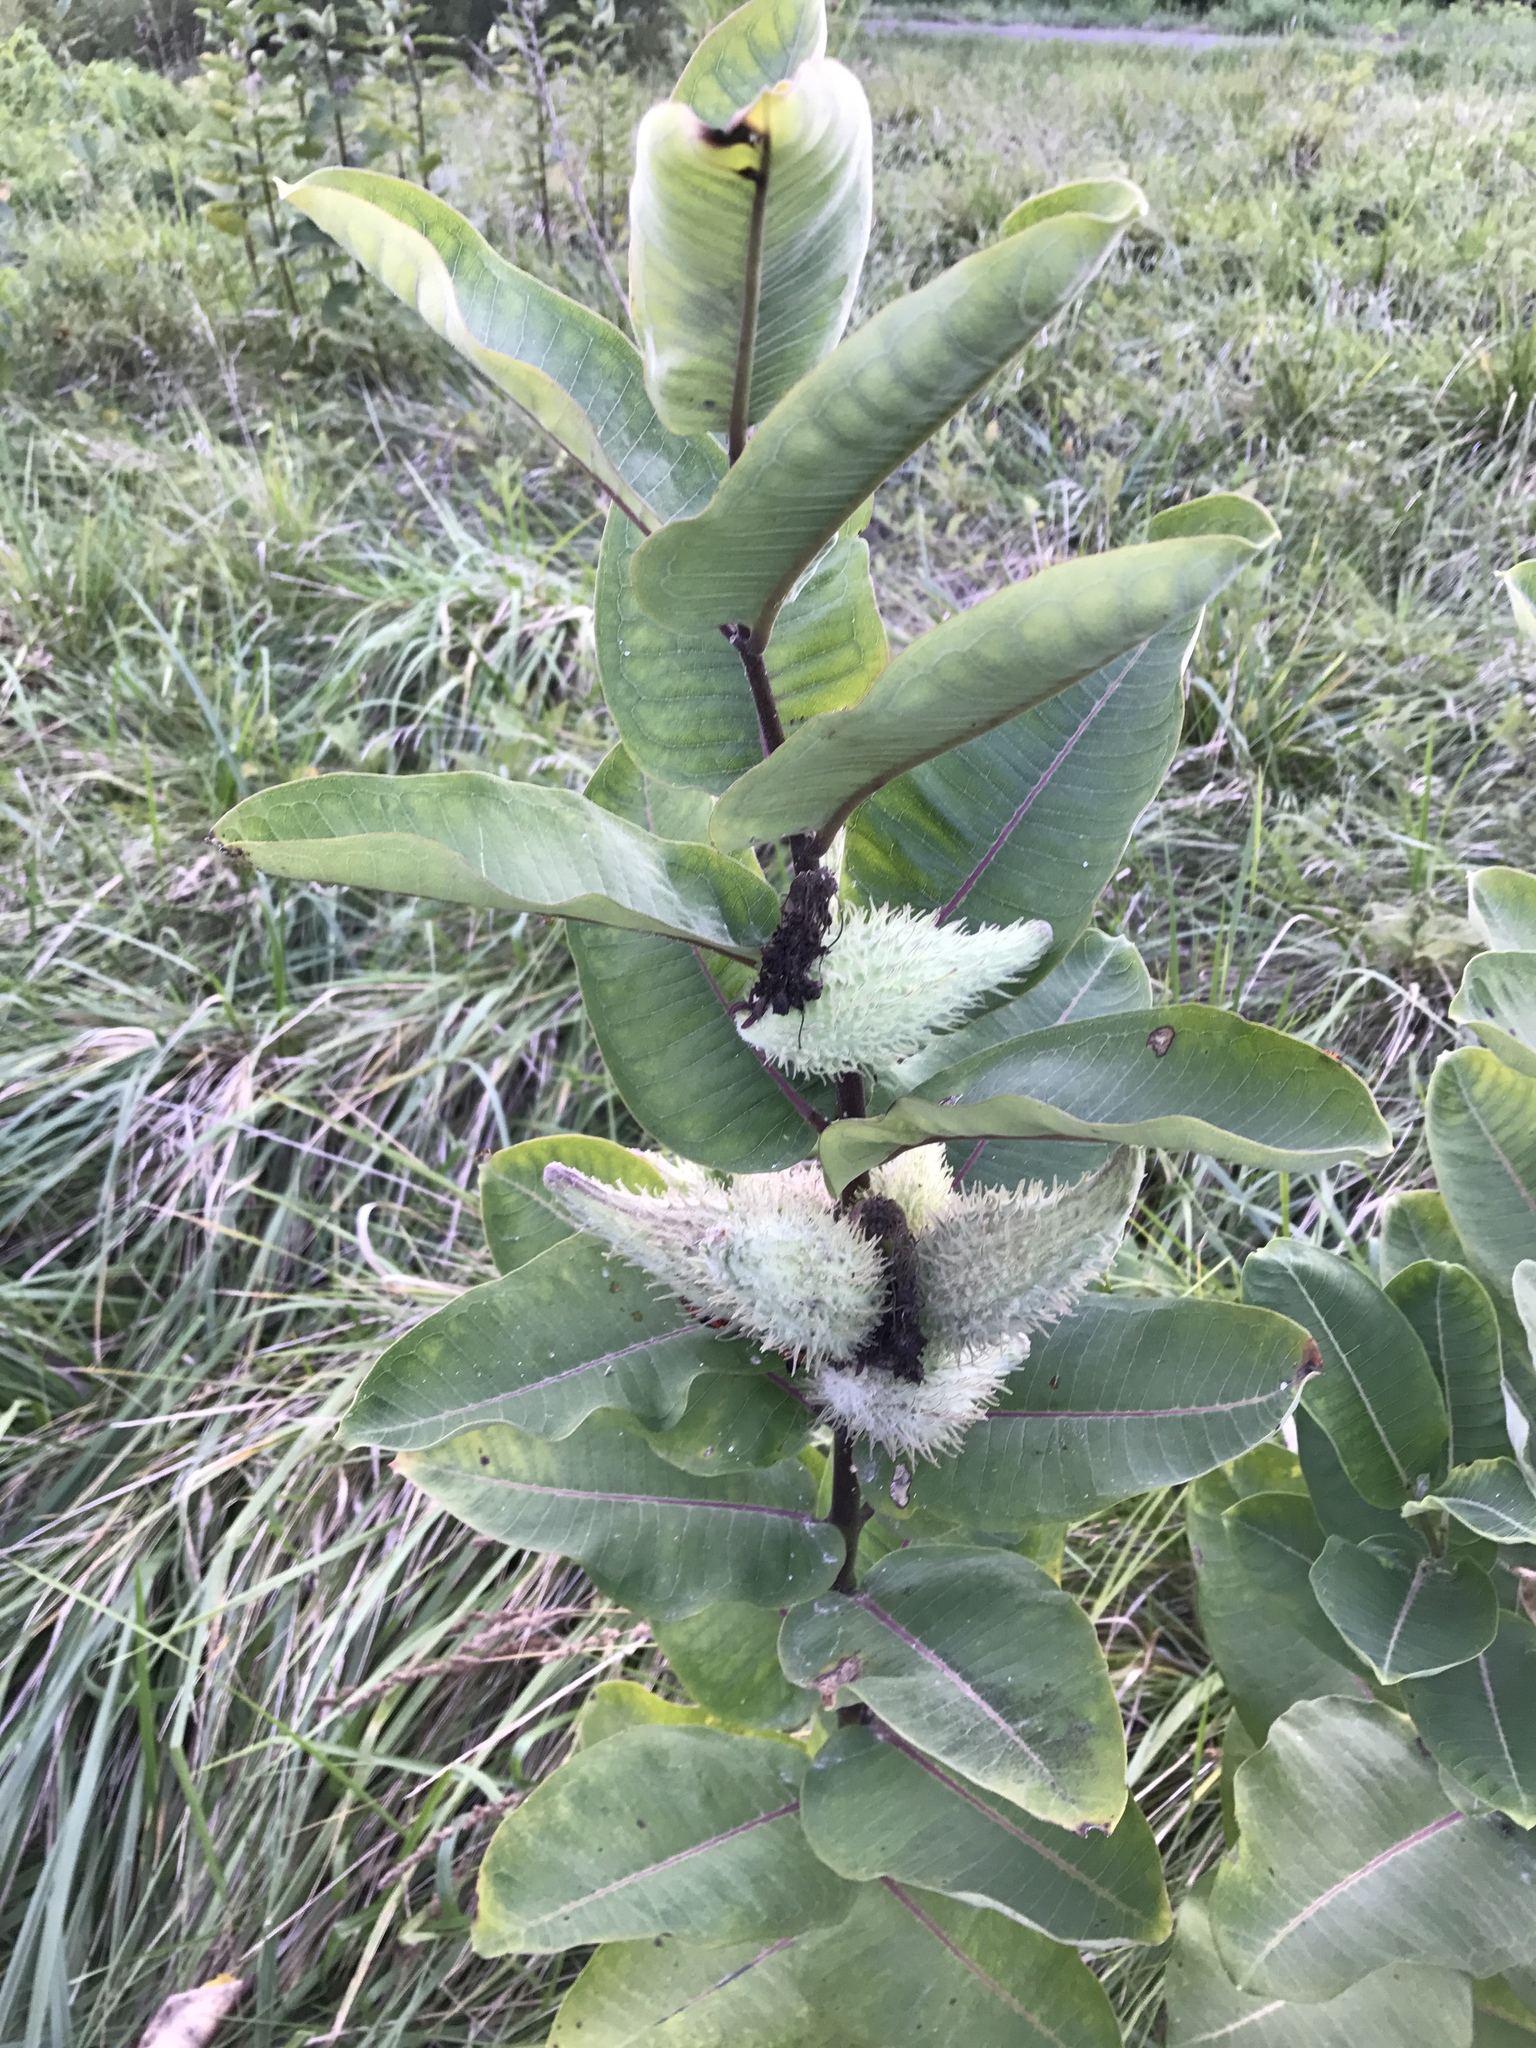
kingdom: Plantae
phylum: Tracheophyta
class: Magnoliopsida
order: Gentianales
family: Apocynaceae
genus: Asclepias
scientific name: Asclepias syriaca
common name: Common milkweed
